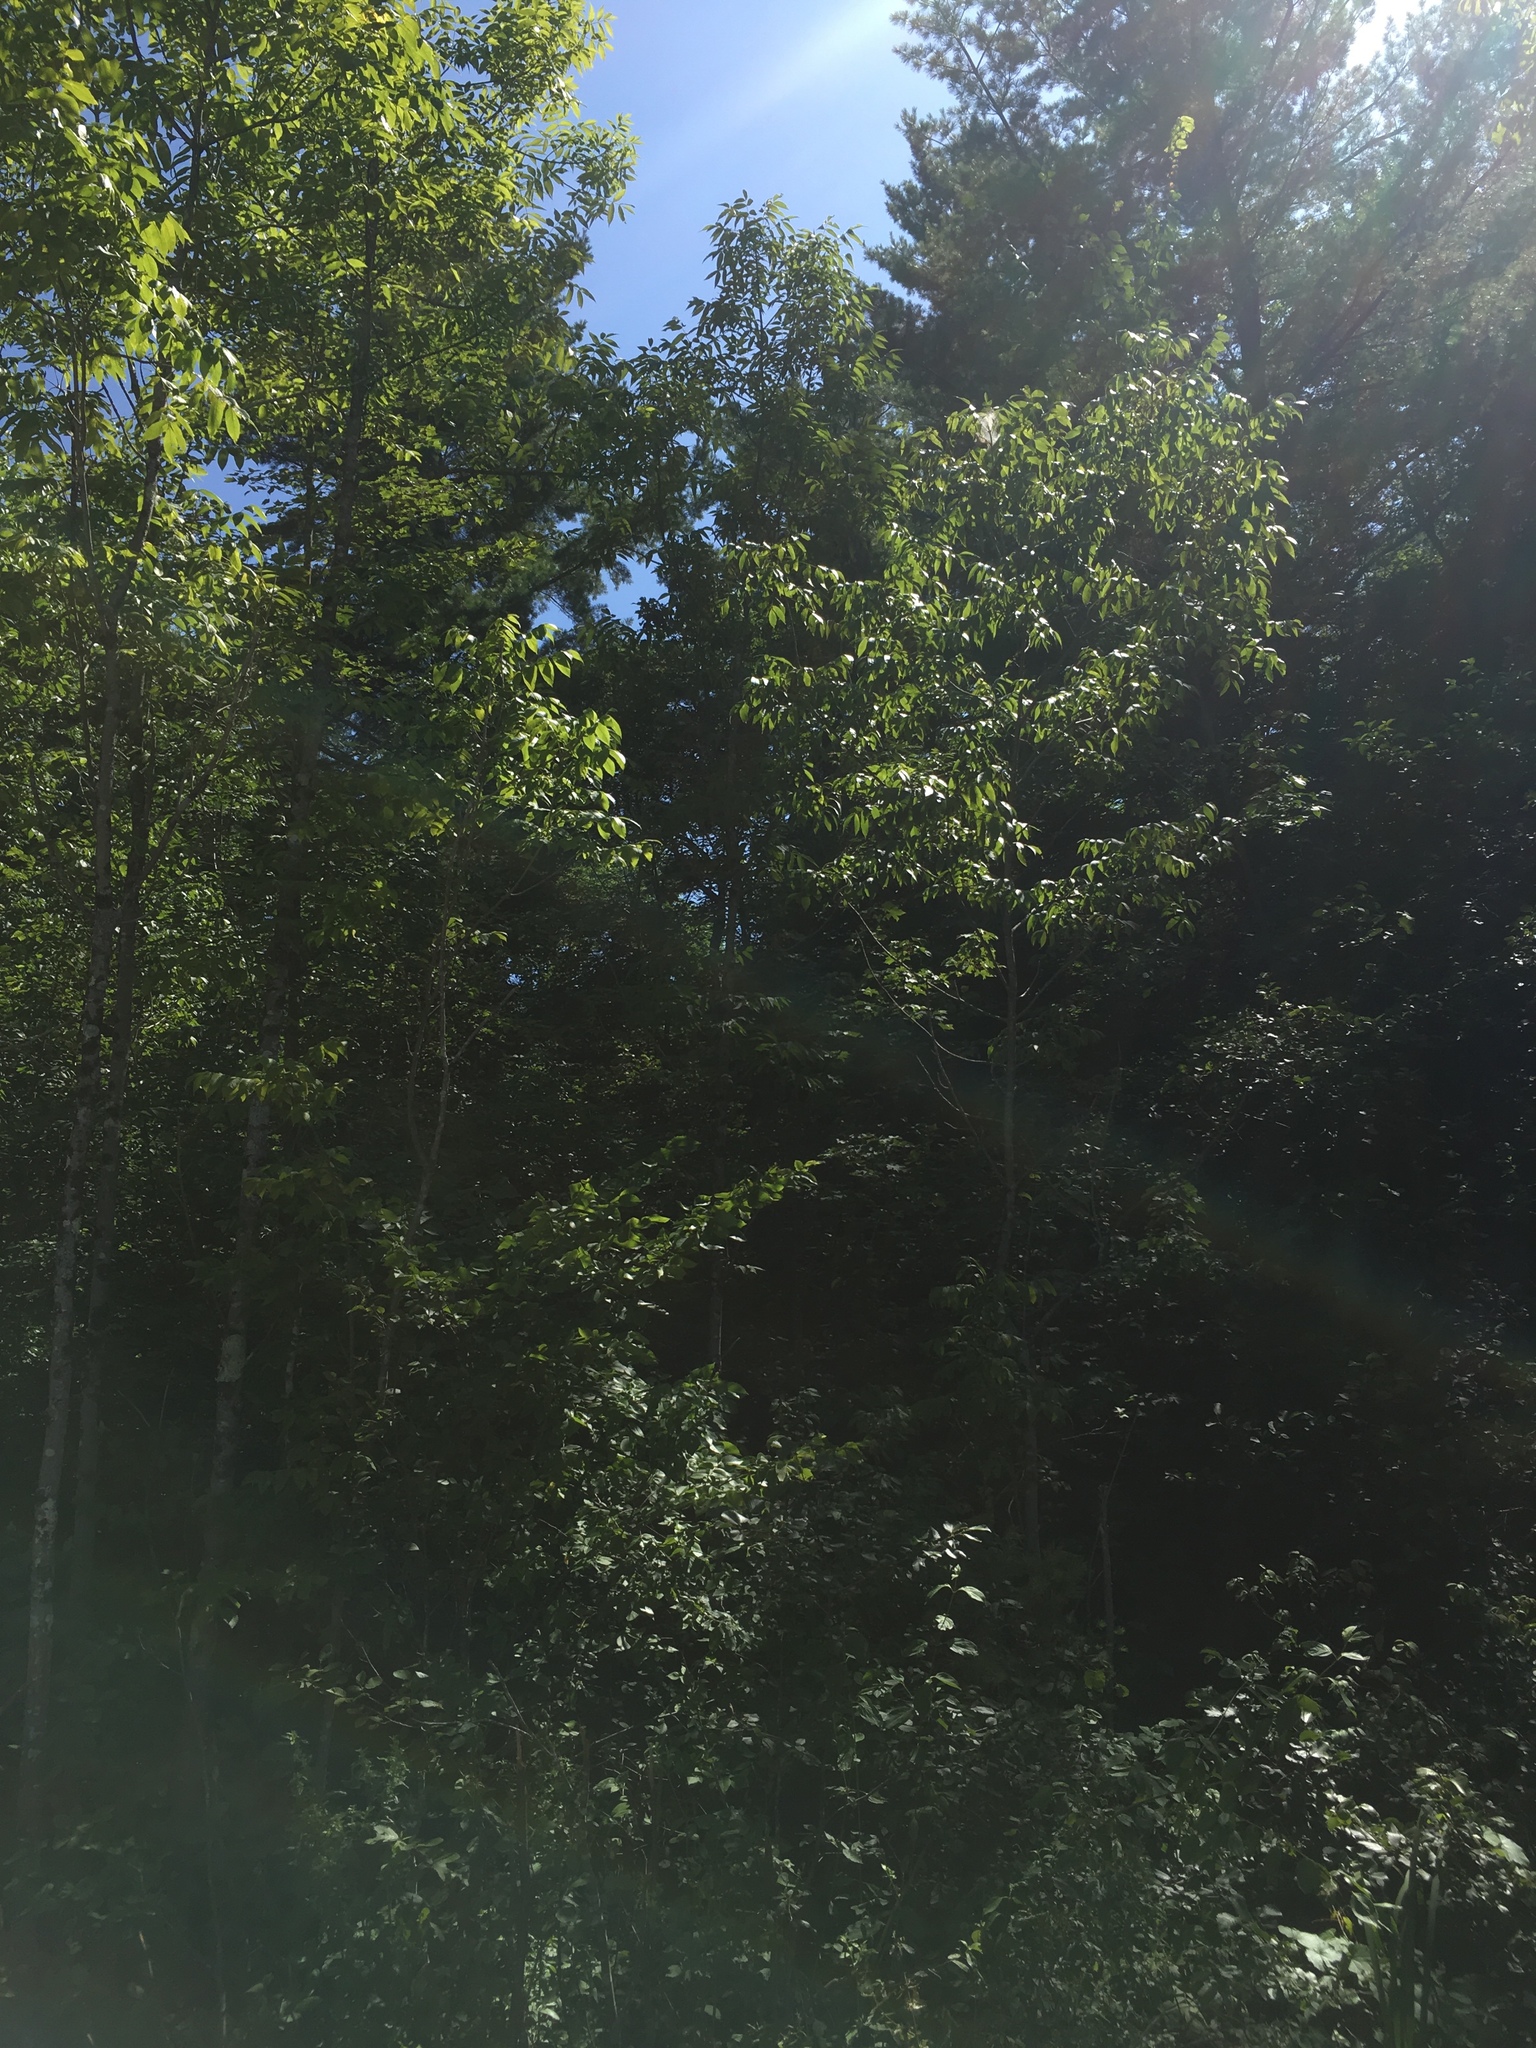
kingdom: Plantae
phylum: Tracheophyta
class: Magnoliopsida
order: Lamiales
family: Oleaceae
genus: Fraxinus
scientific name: Fraxinus nigra
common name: Black ash
